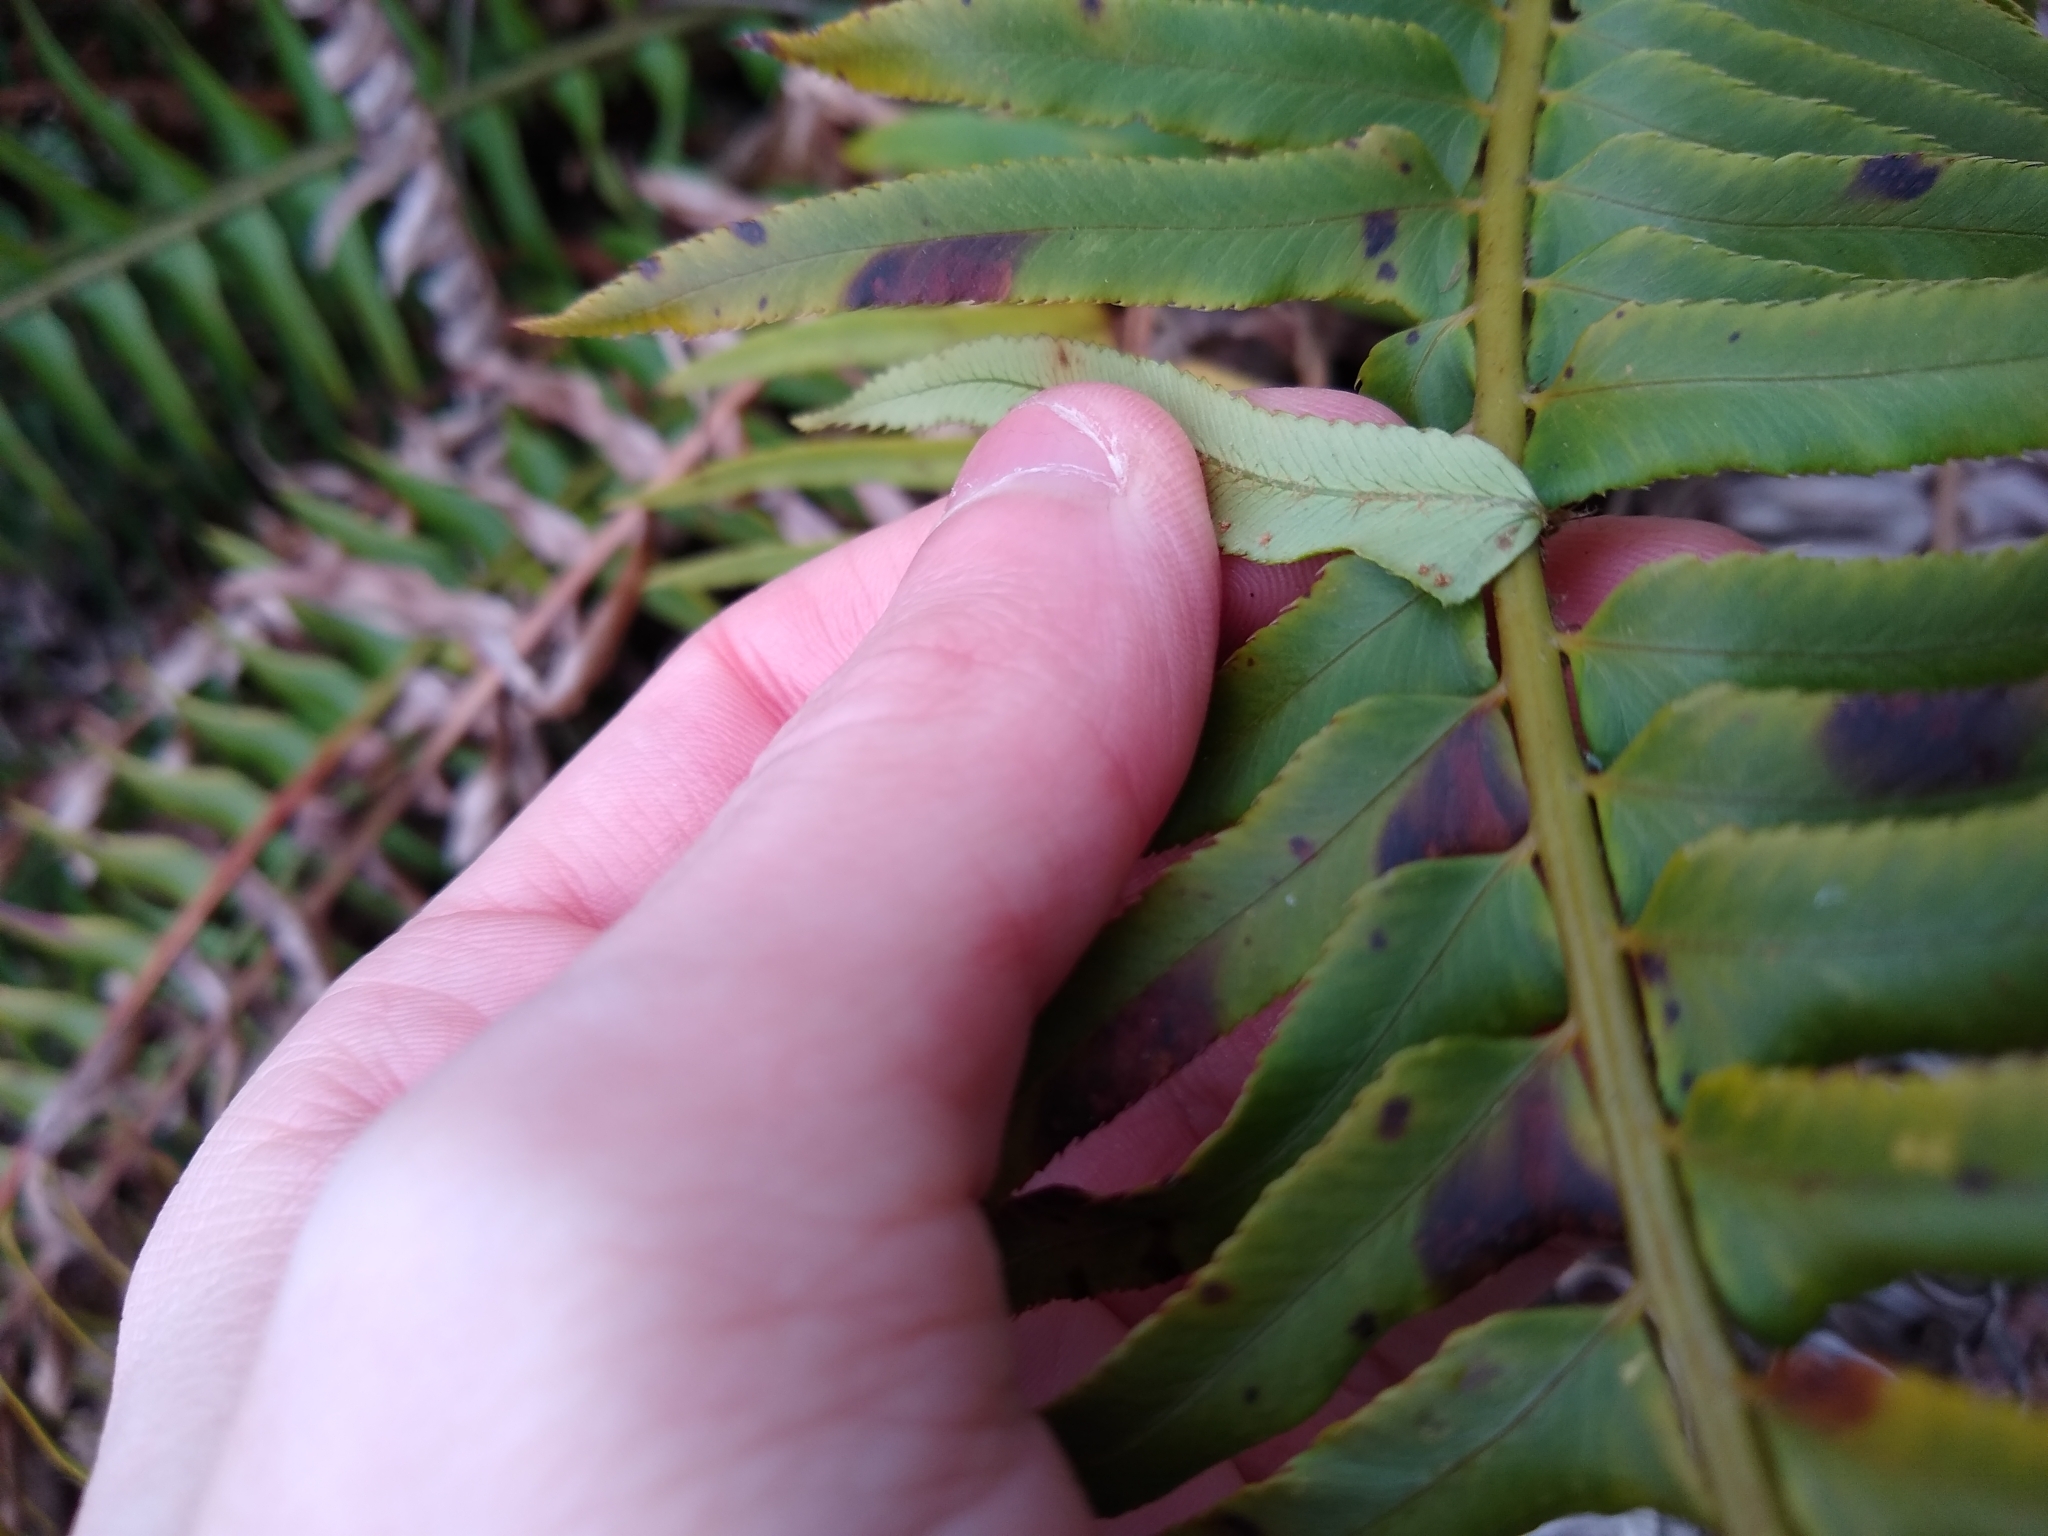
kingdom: Plantae
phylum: Tracheophyta
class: Polypodiopsida
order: Polypodiales
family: Dryopteridaceae
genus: Polystichum
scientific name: Polystichum munitum
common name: Western sword-fern
